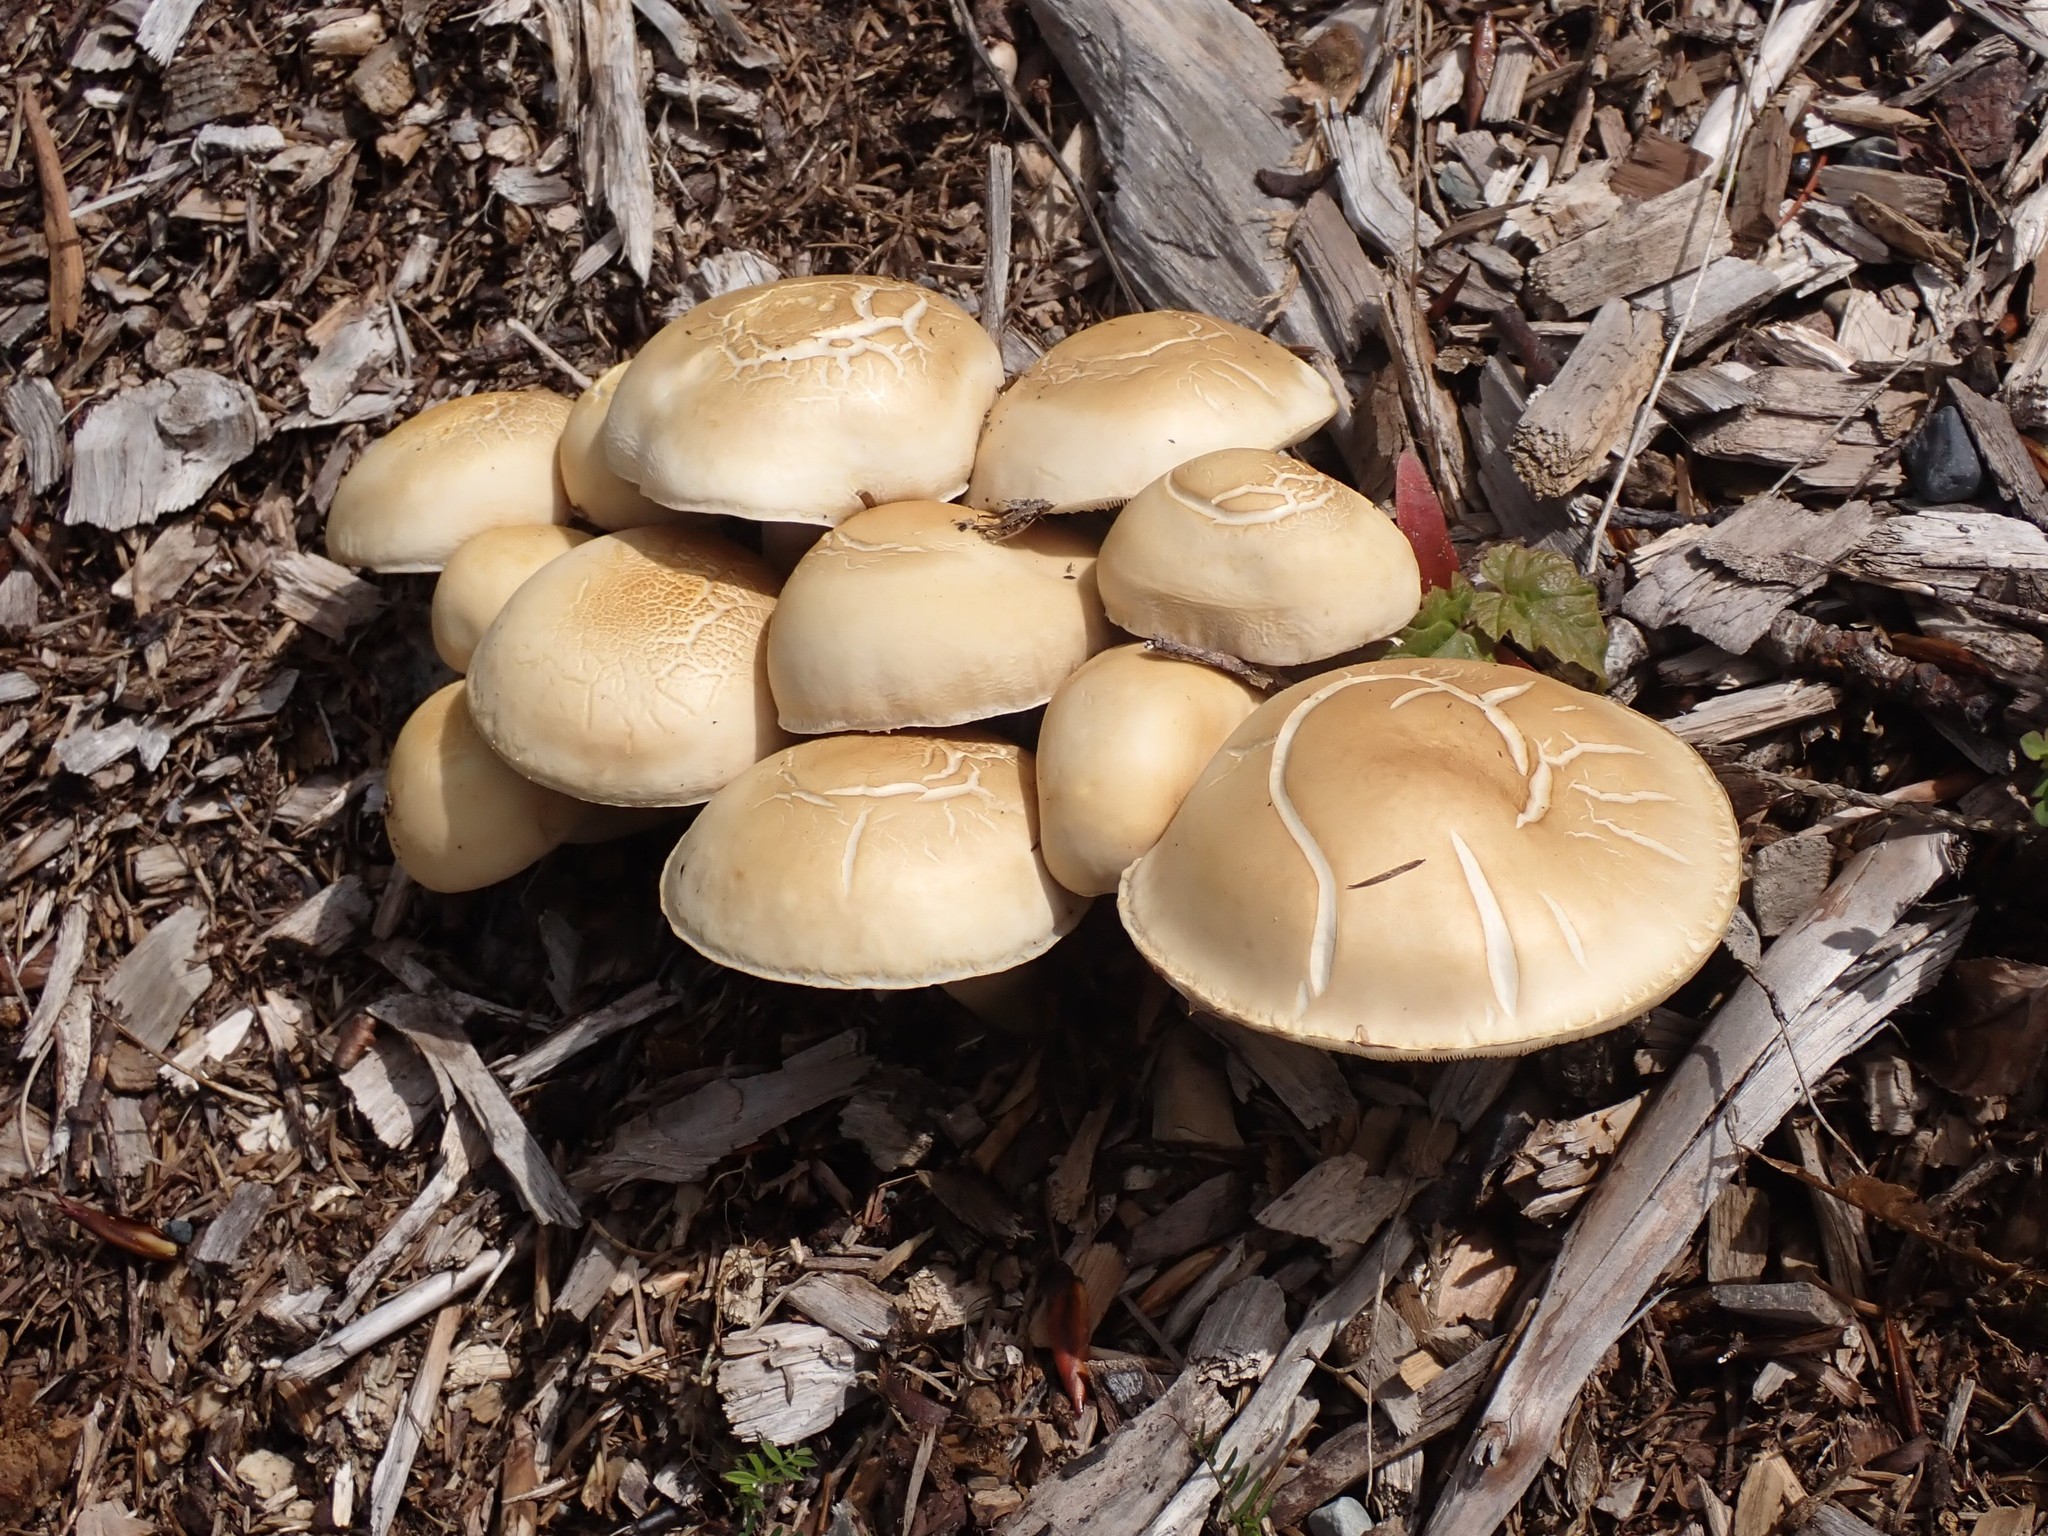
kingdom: Fungi
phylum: Basidiomycota
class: Agaricomycetes
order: Agaricales
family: Strophariaceae
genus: Agrocybe
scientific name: Agrocybe praecox
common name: Spring fieldcap
